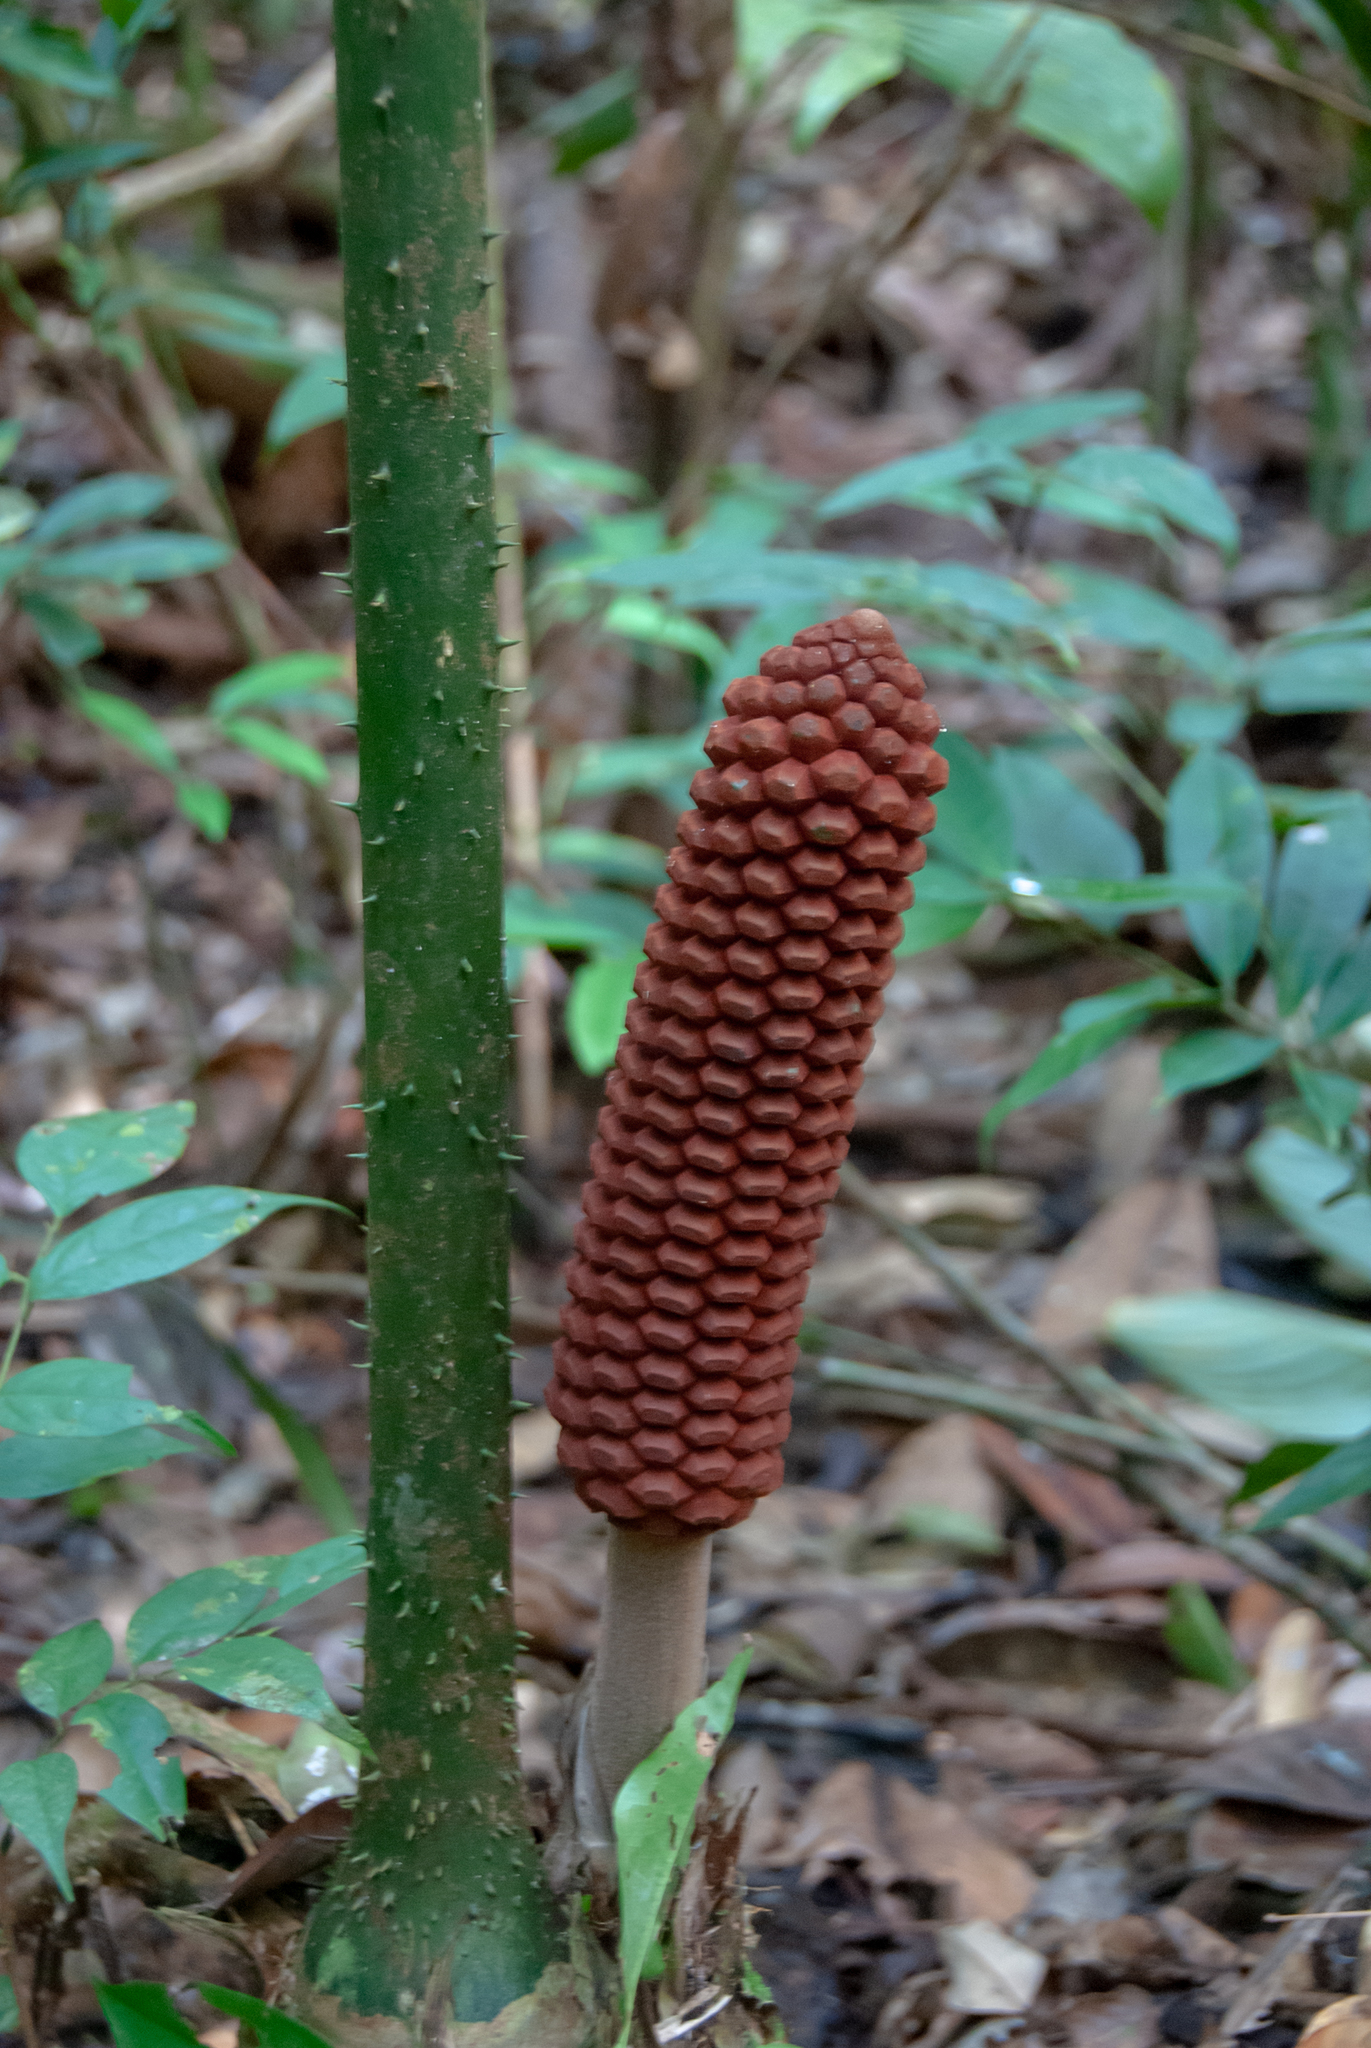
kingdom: Plantae
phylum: Tracheophyta
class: Cycadopsida
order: Cycadales
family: Zamiaceae
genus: Zamia
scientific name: Zamia amazonum
